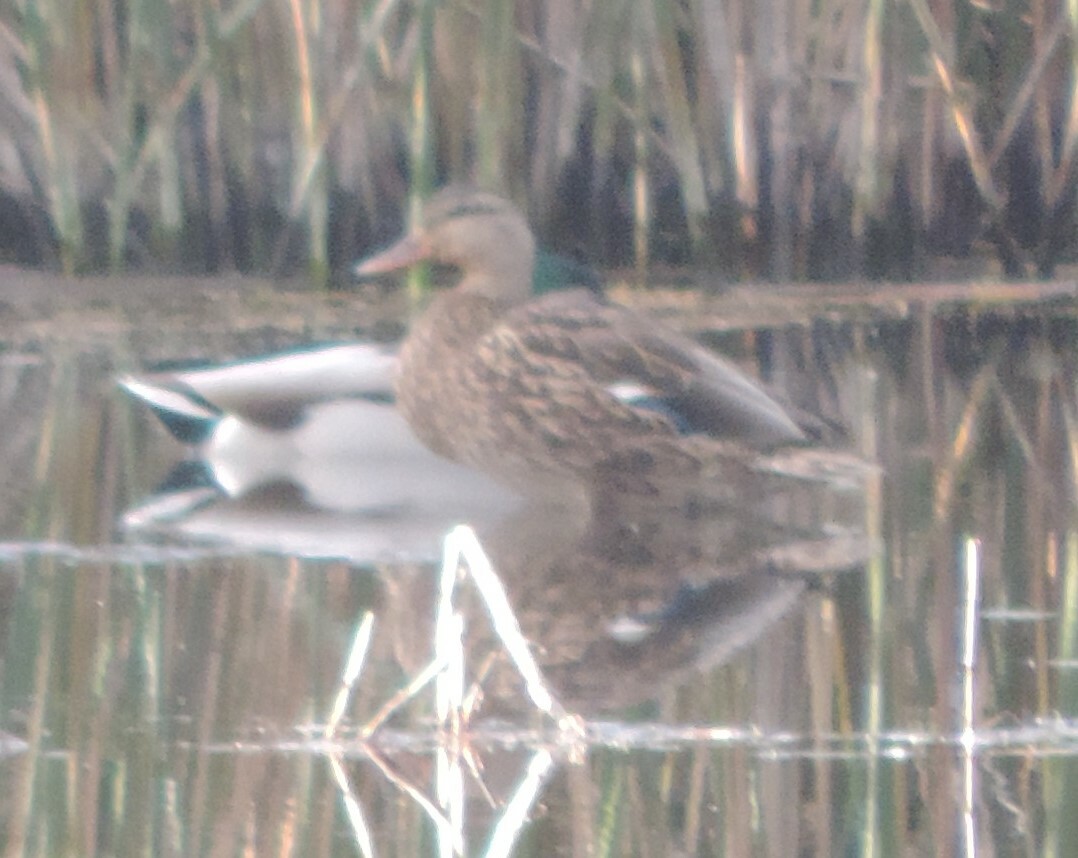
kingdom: Animalia
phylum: Chordata
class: Aves
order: Anseriformes
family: Anatidae
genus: Anas
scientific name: Anas platyrhynchos
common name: Mallard
